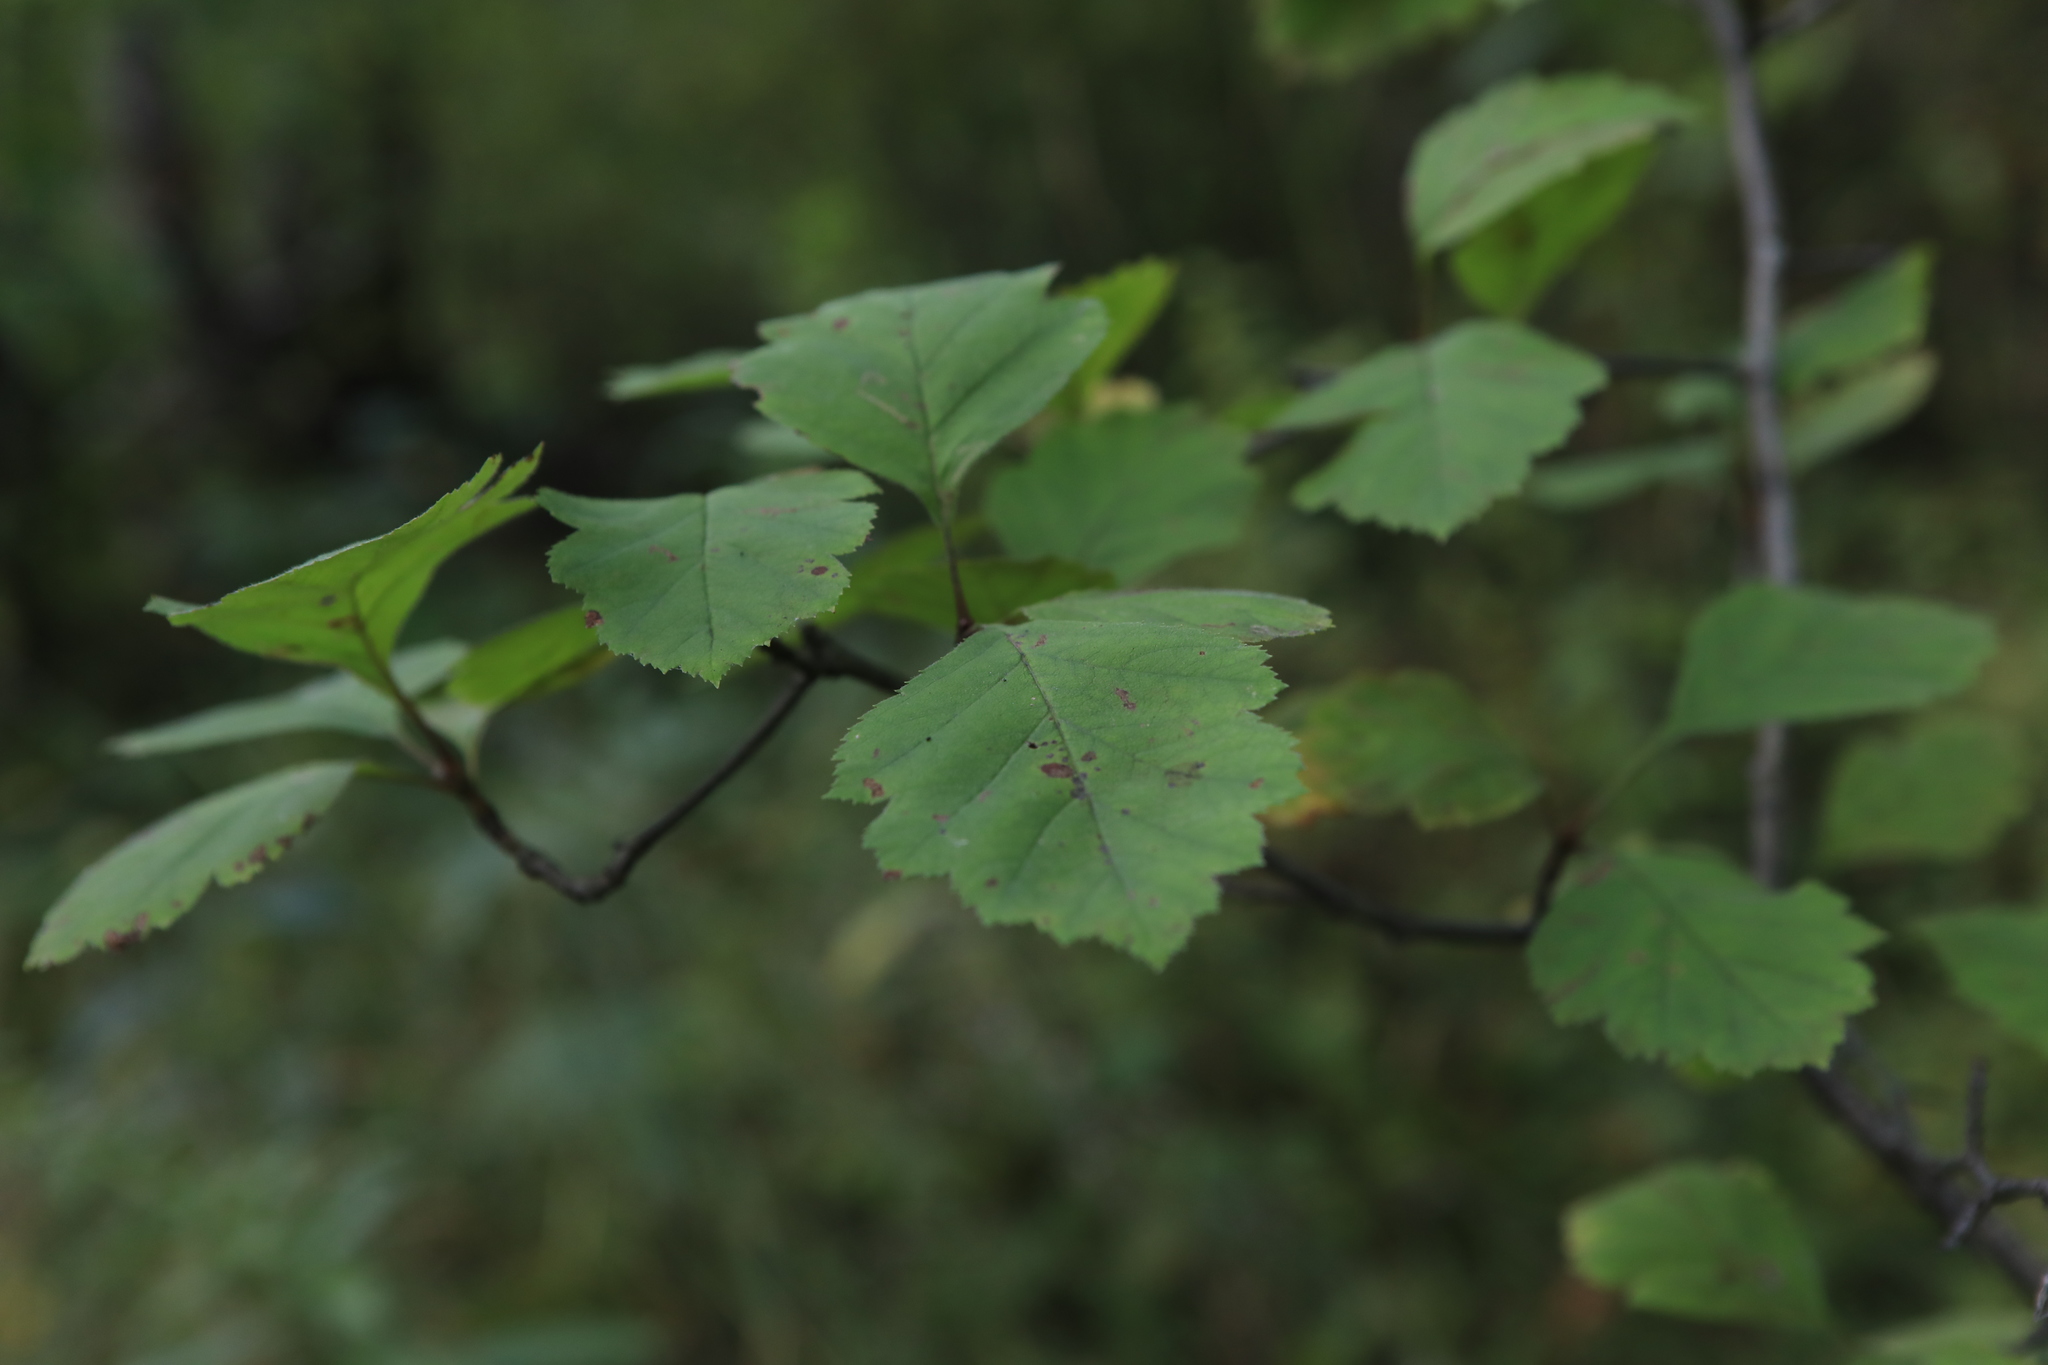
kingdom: Plantae
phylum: Tracheophyta
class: Magnoliopsida
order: Rosales
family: Rosaceae
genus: Crataegus
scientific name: Crataegus sanguinea
